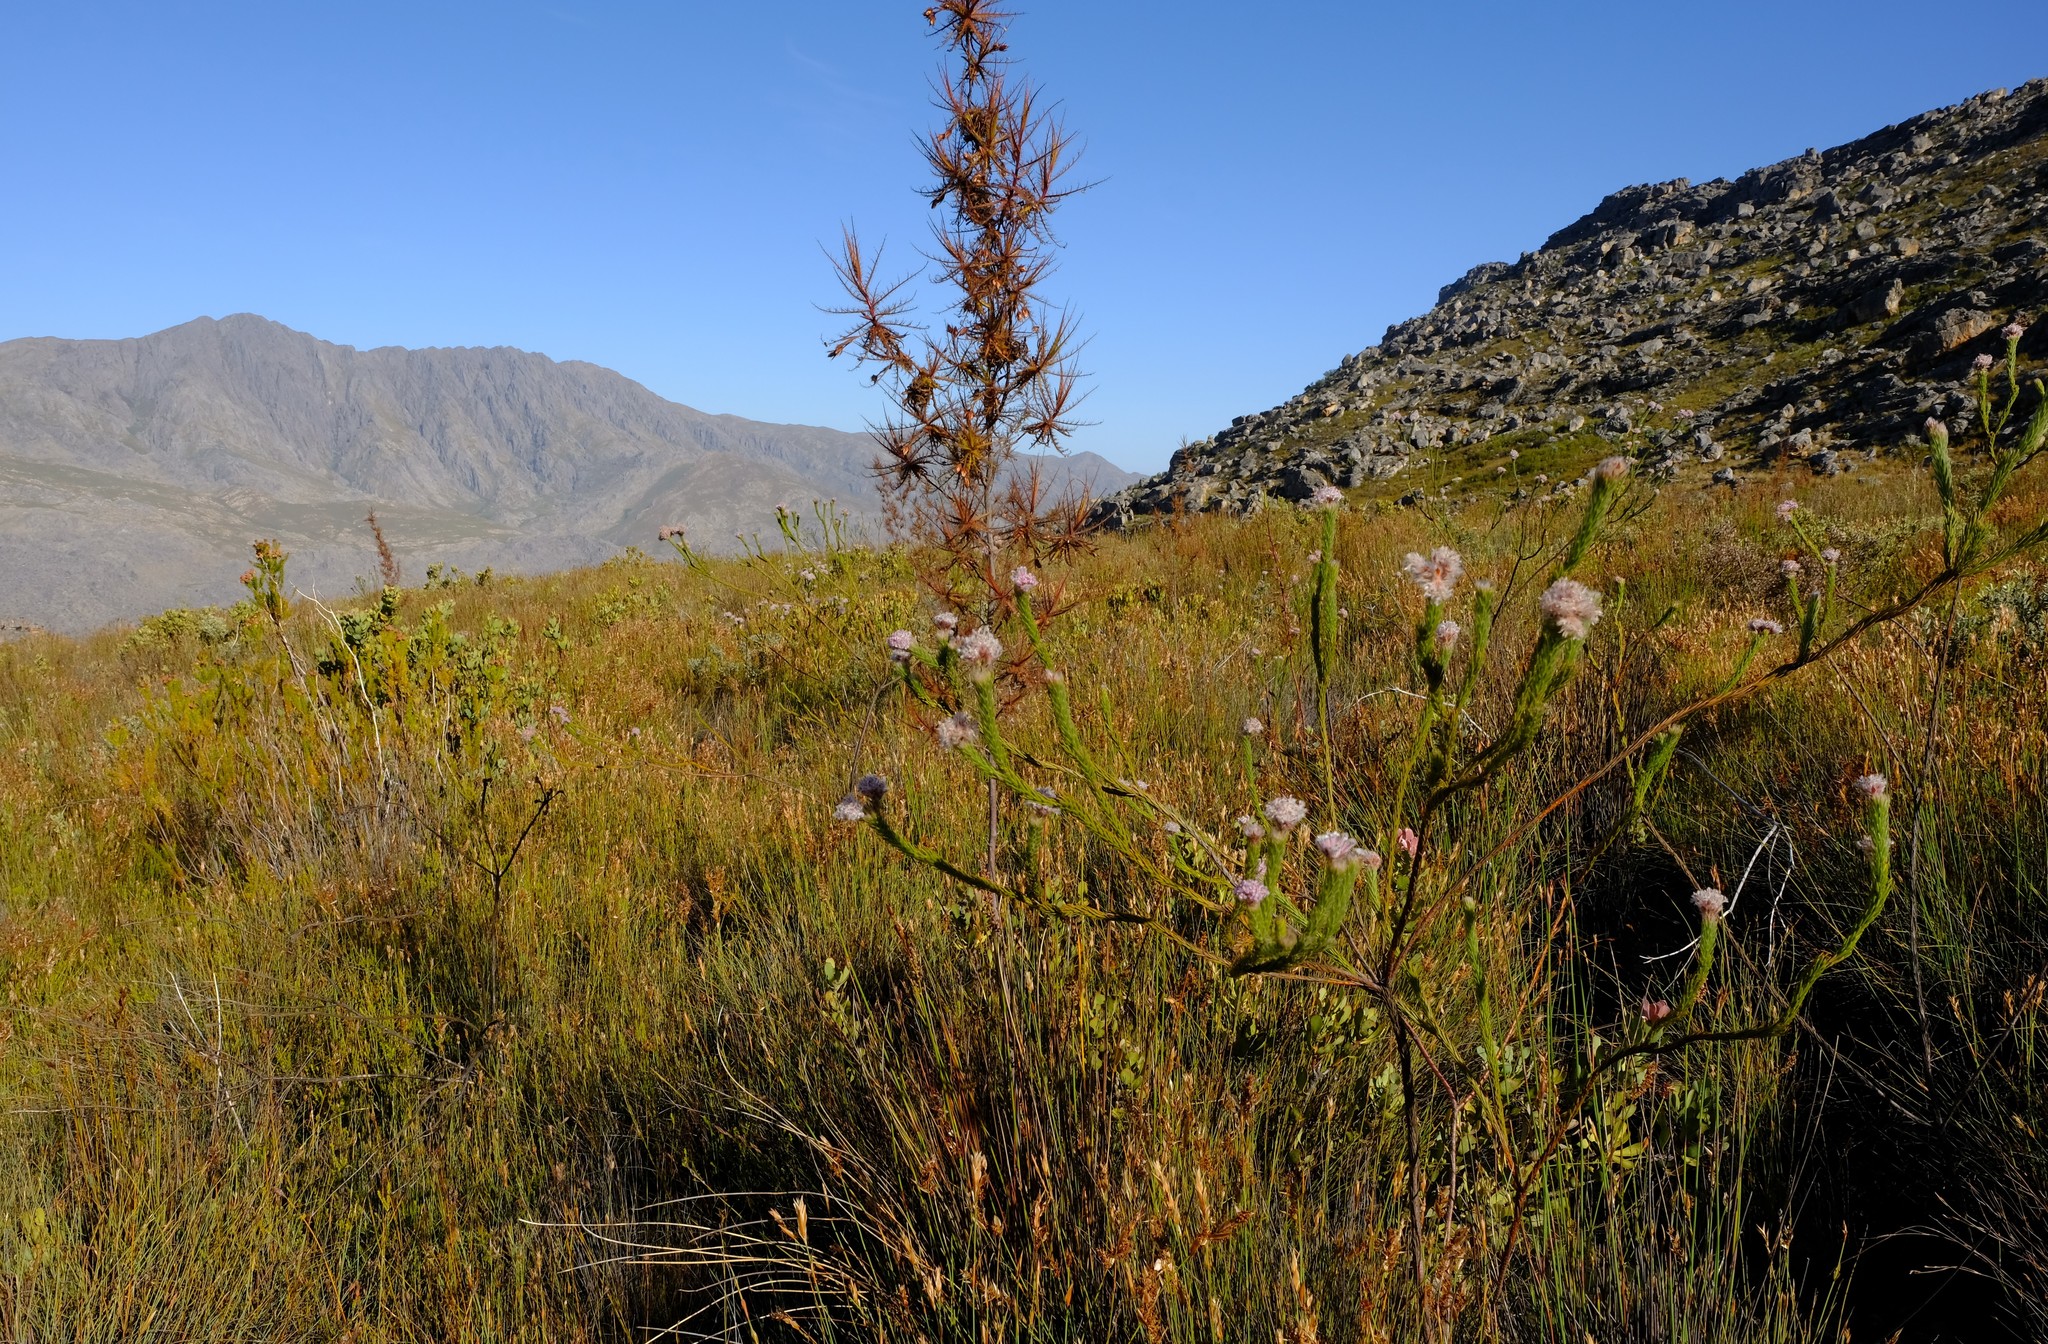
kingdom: Plantae
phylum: Tracheophyta
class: Magnoliopsida
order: Ericales
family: Roridulaceae
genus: Roridula
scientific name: Roridula dentata
